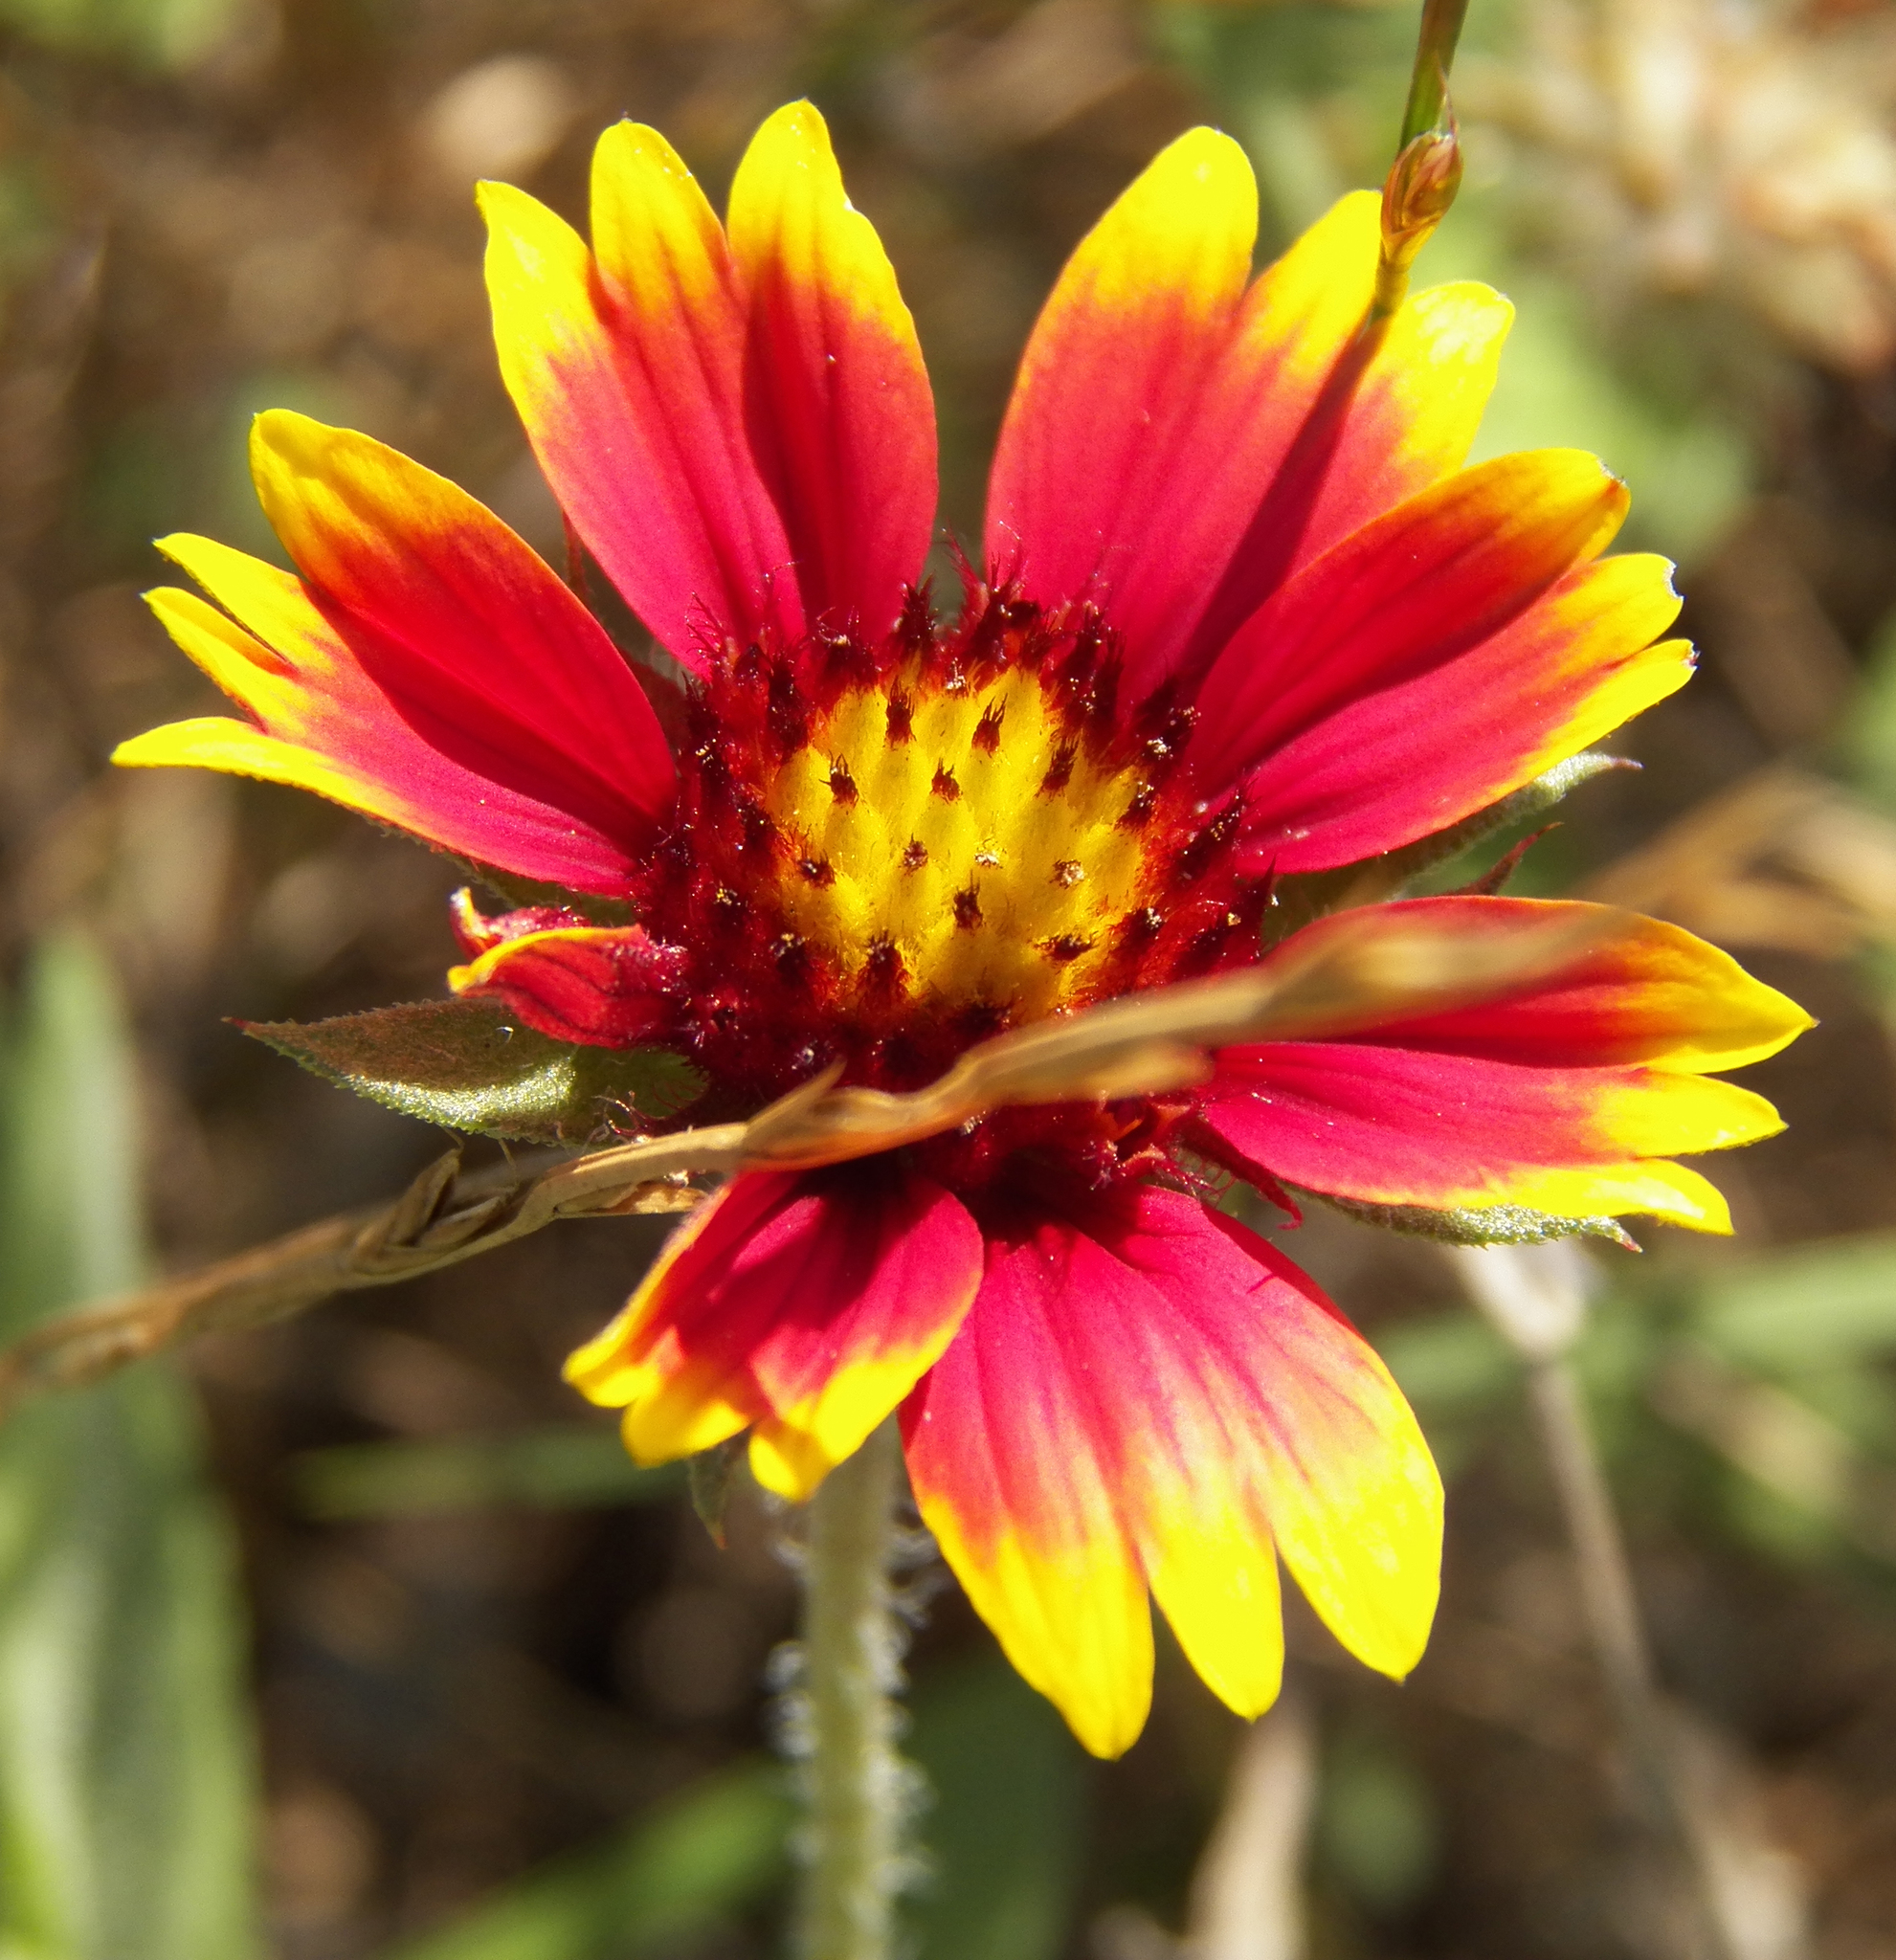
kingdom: Plantae
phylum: Tracheophyta
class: Magnoliopsida
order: Asterales
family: Asteraceae
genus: Gaillardia
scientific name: Gaillardia pulchella
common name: Firewheel
